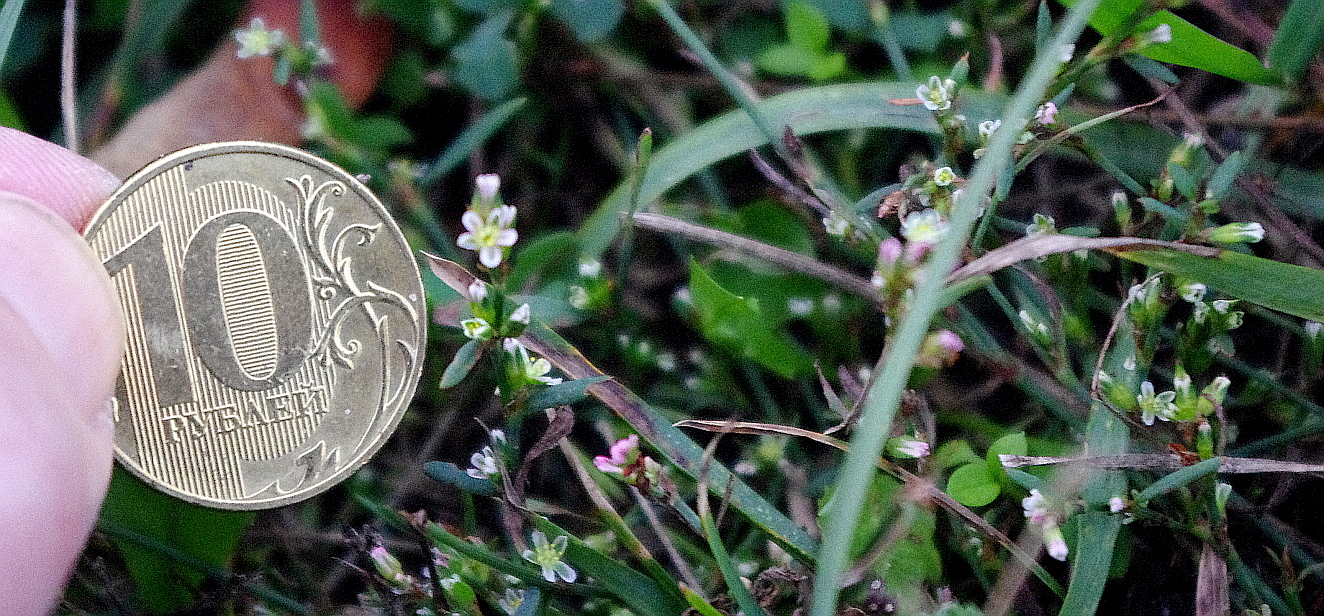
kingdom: Plantae
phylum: Tracheophyta
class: Magnoliopsida
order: Caryophyllales
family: Polygonaceae
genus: Polygonum
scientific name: Polygonum
